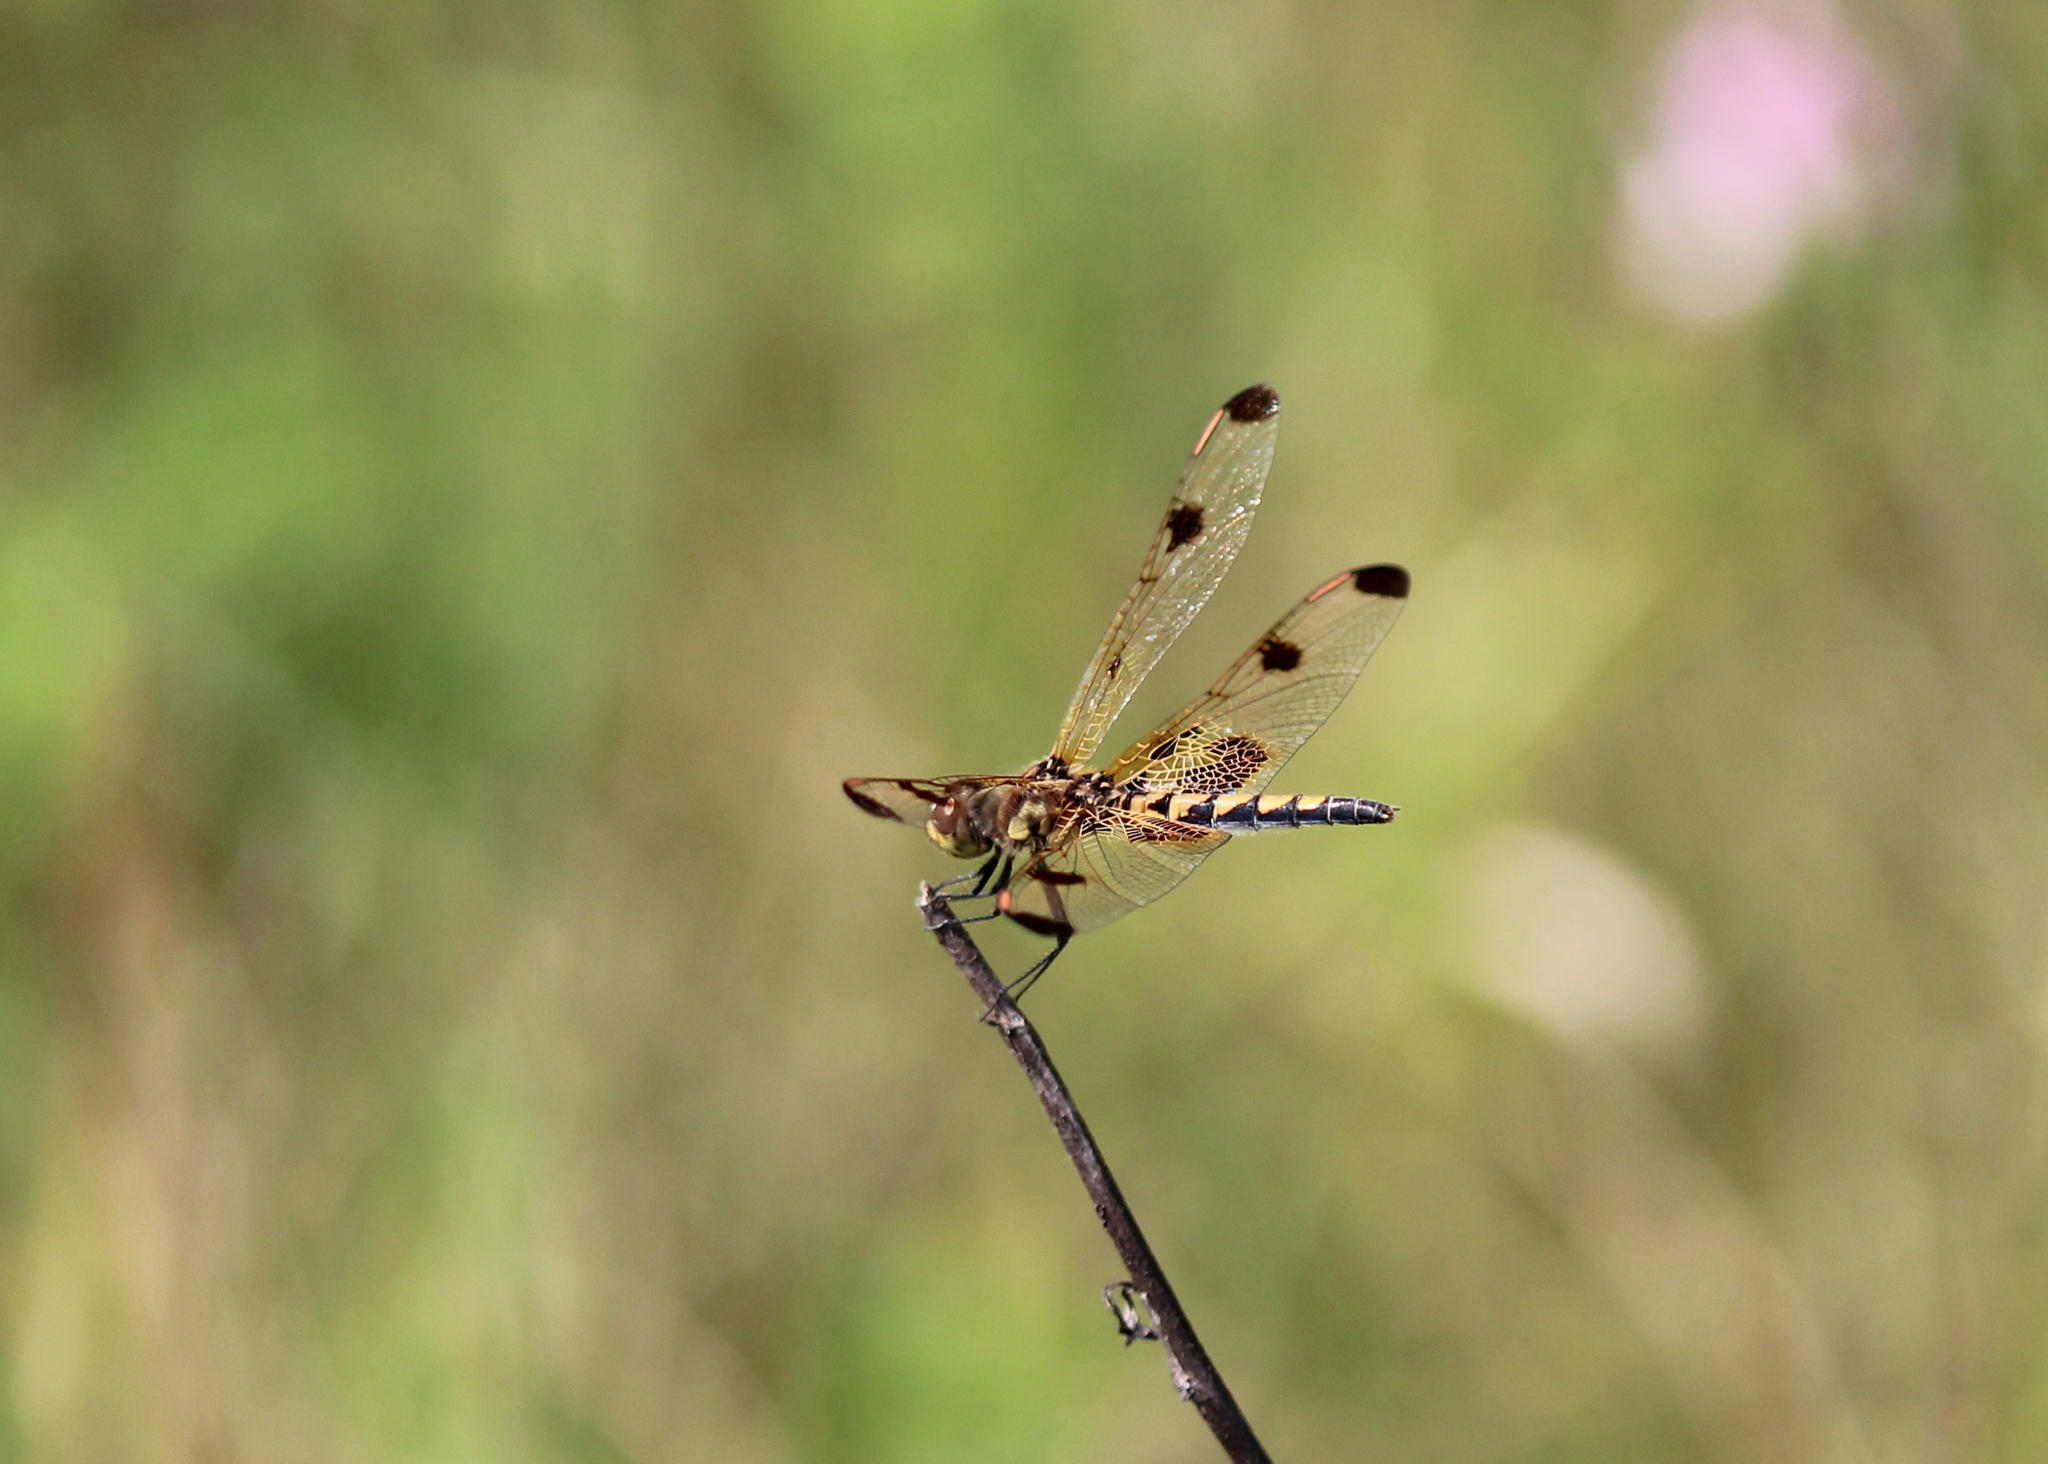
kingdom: Animalia
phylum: Arthropoda
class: Insecta
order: Odonata
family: Libellulidae
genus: Celithemis
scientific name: Celithemis elisa
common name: Calico pennant
